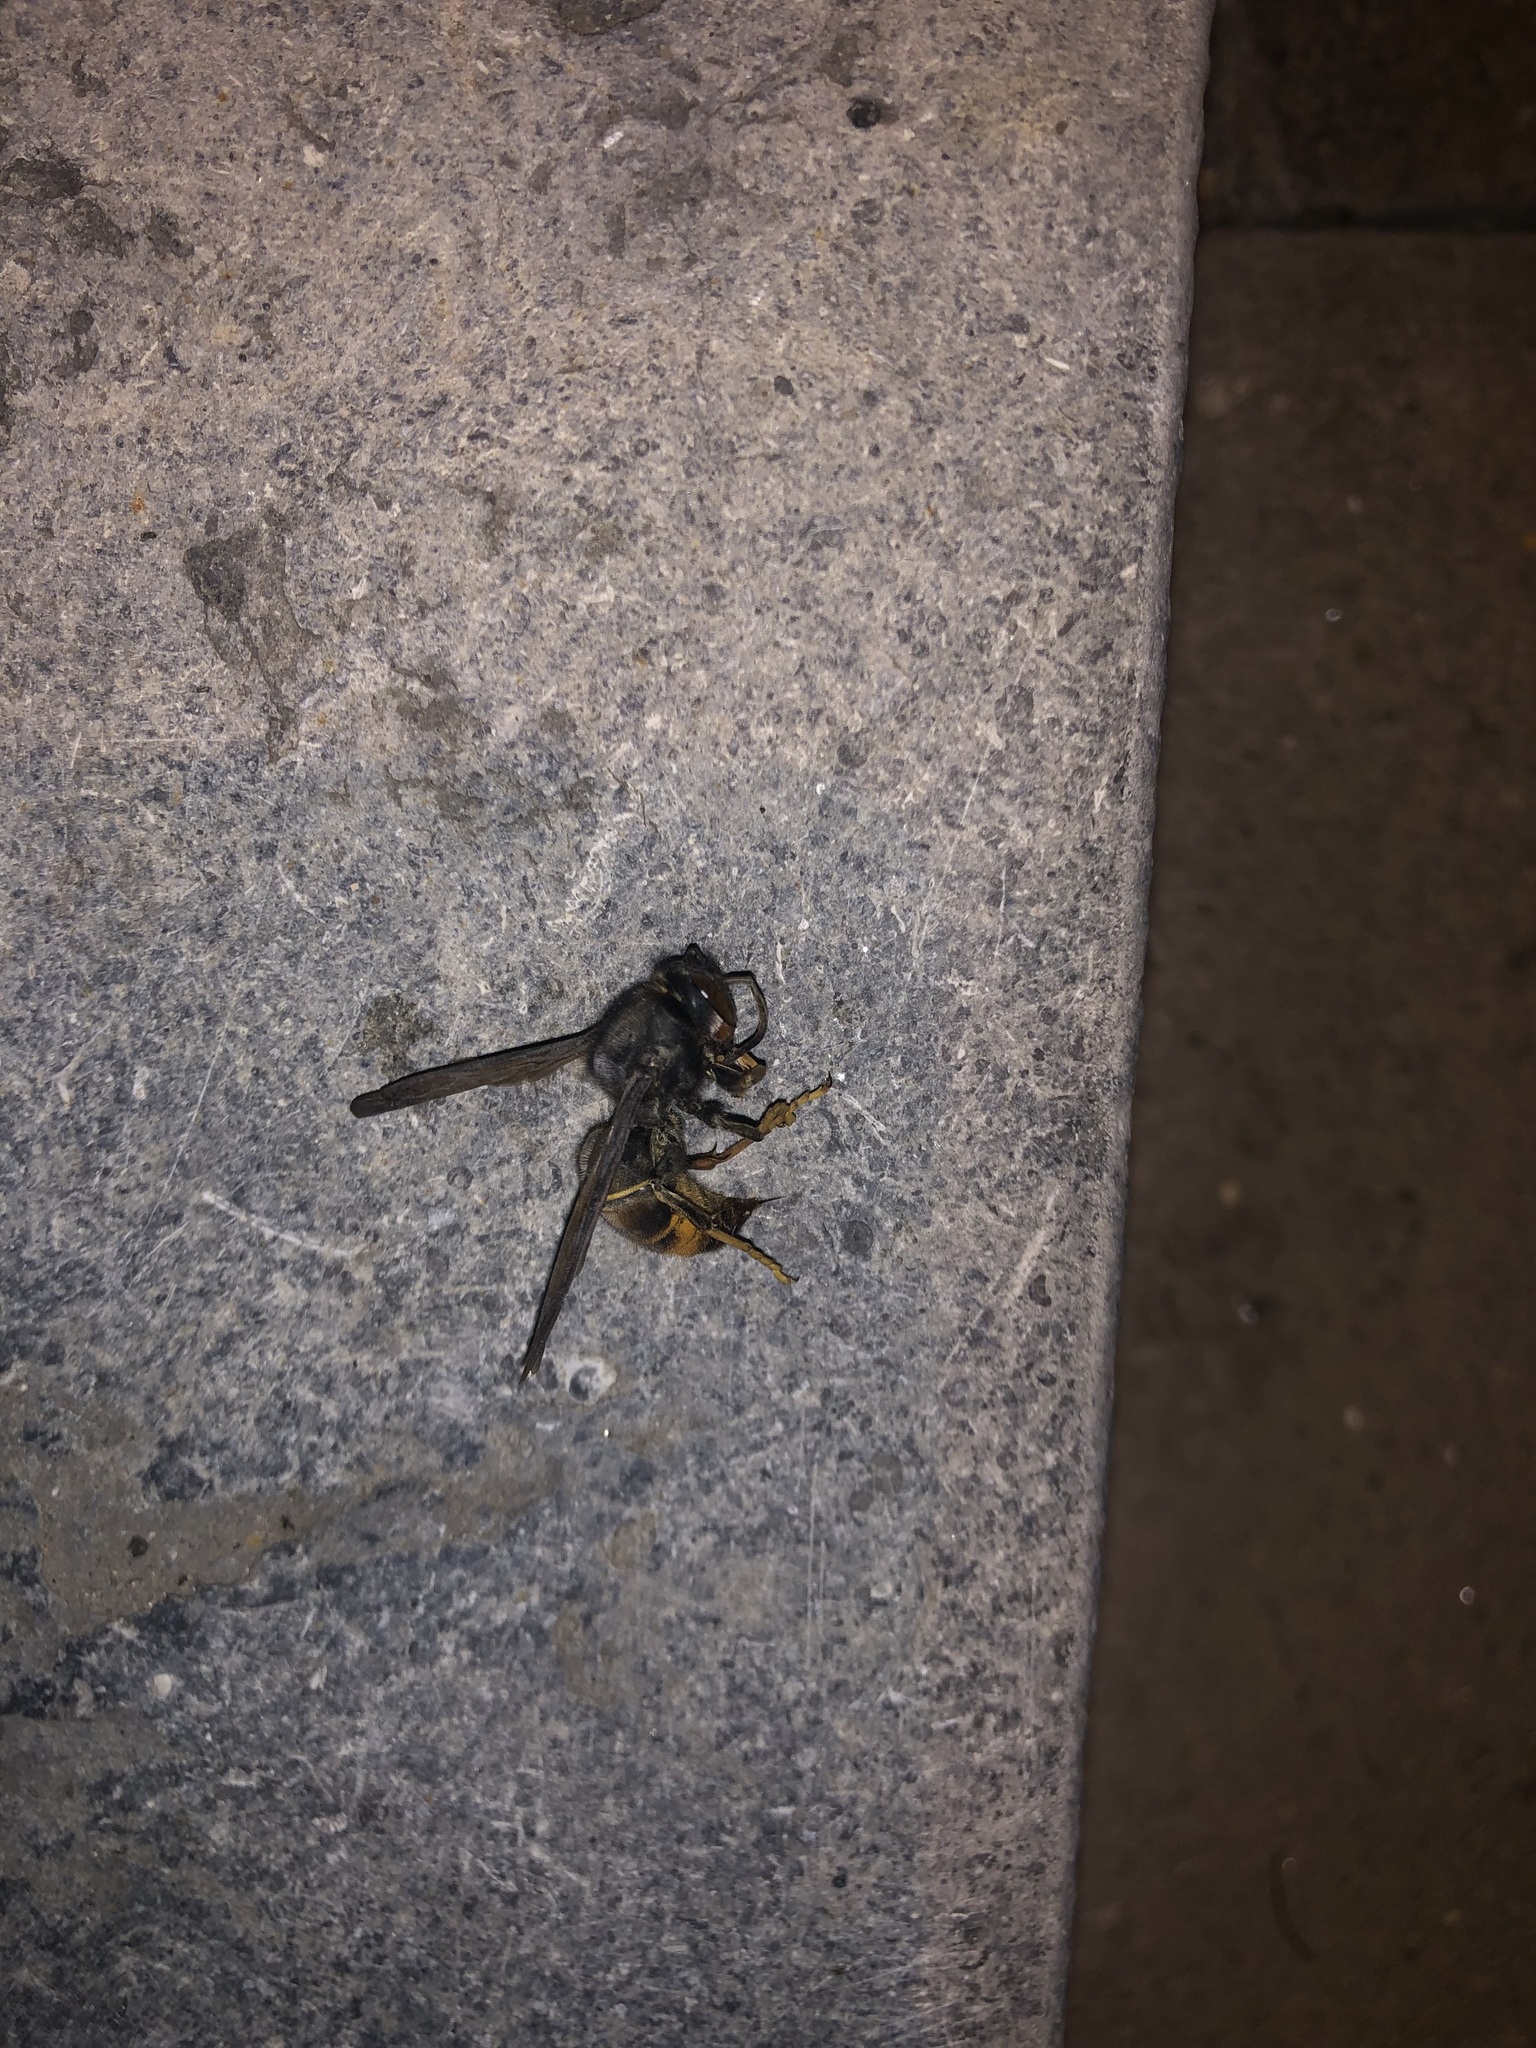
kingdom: Animalia
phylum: Arthropoda
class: Insecta
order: Hymenoptera
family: Vespidae
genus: Vespa
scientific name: Vespa velutina
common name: Asian hornet
